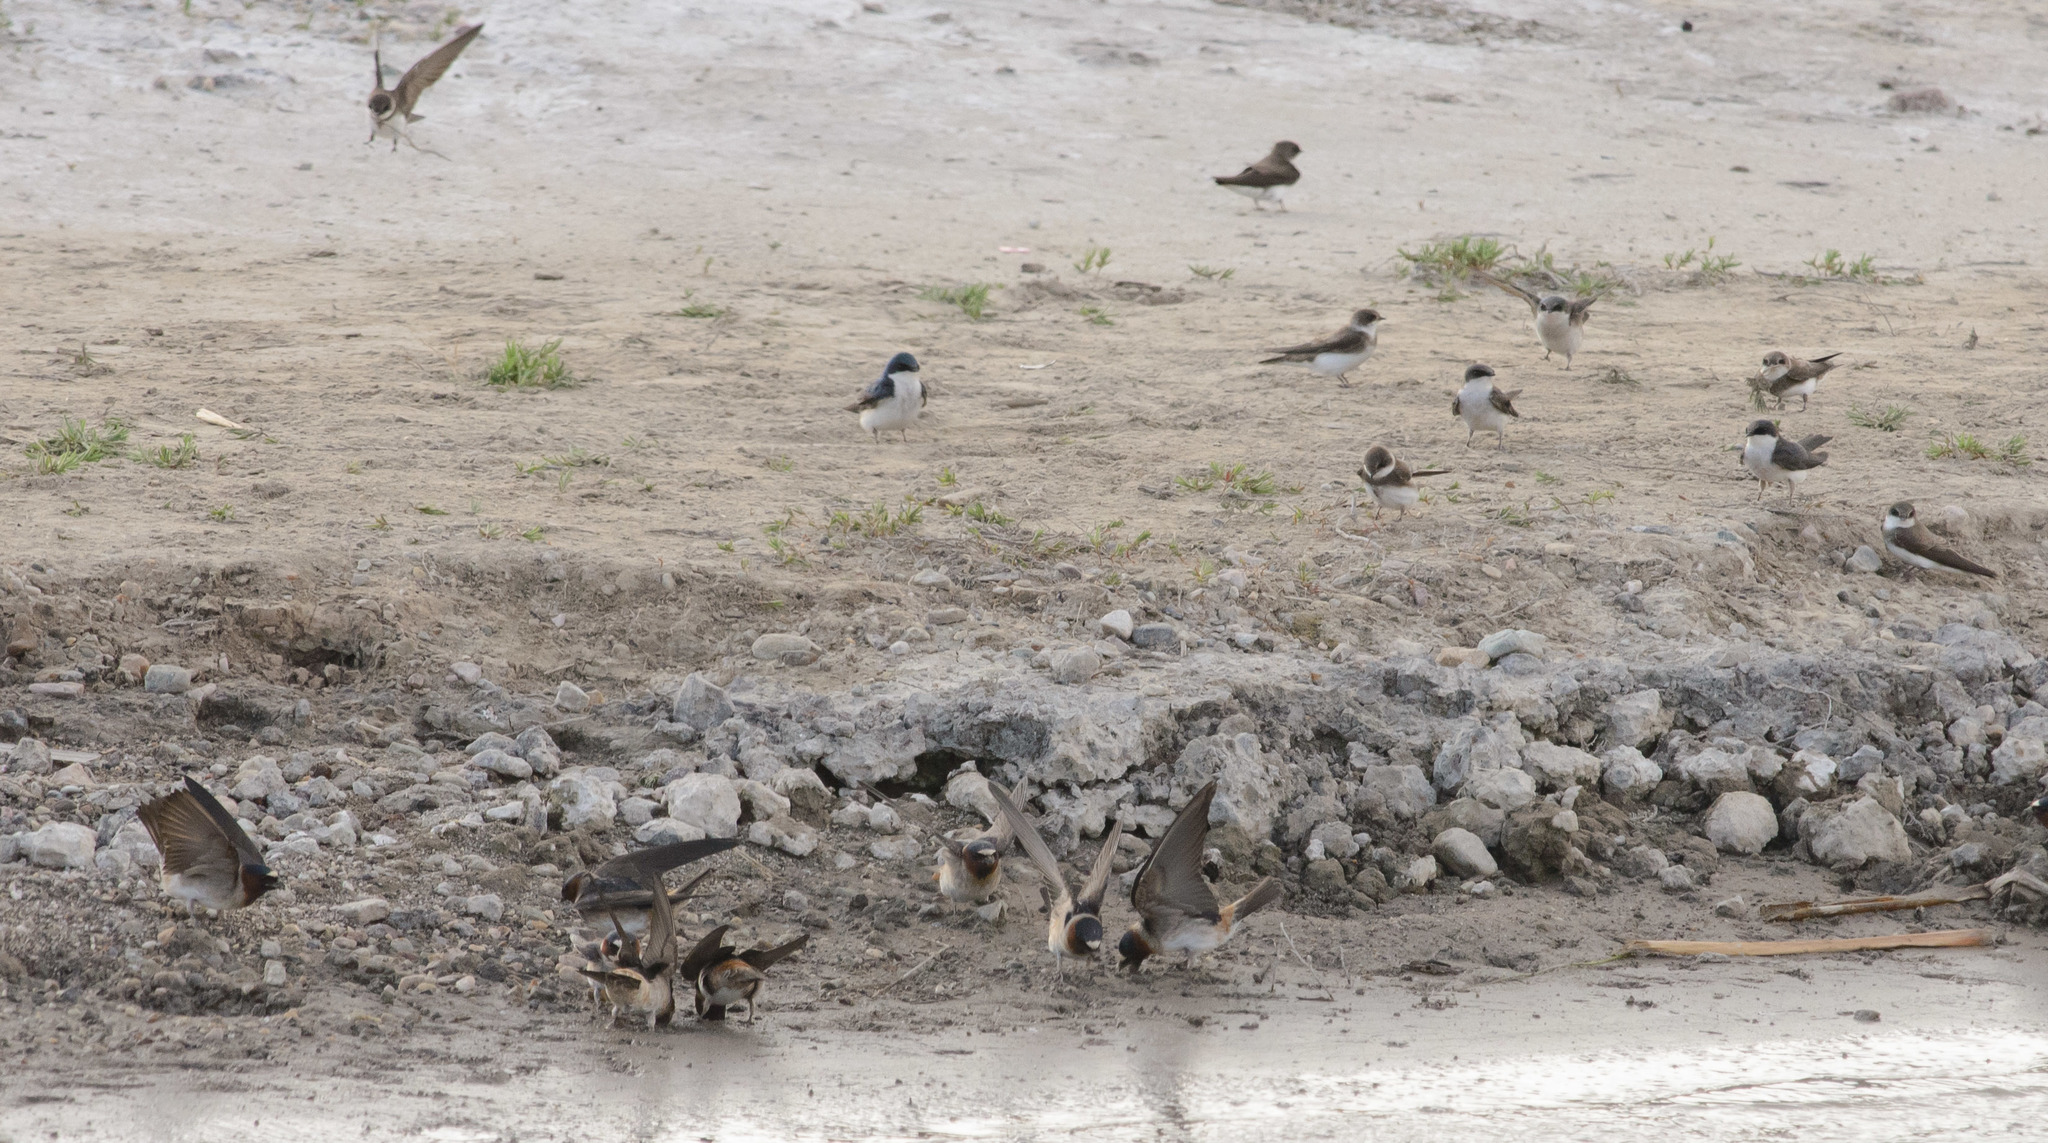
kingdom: Animalia
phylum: Chordata
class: Aves
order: Passeriformes
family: Hirundinidae
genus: Petrochelidon
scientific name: Petrochelidon pyrrhonota
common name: American cliff swallow
